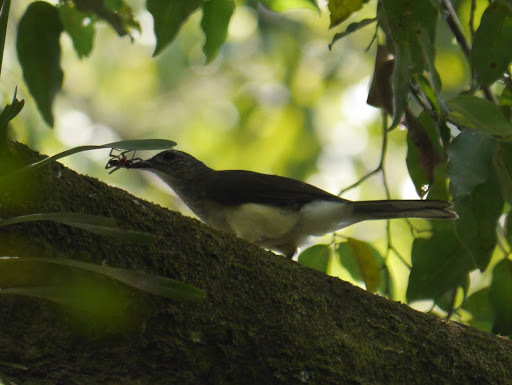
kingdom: Animalia
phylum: Chordata
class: Aves
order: Passeriformes
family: Pycnonotidae
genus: Thescelocichla
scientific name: Thescelocichla leucopleura
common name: Swamp palm bulbul
